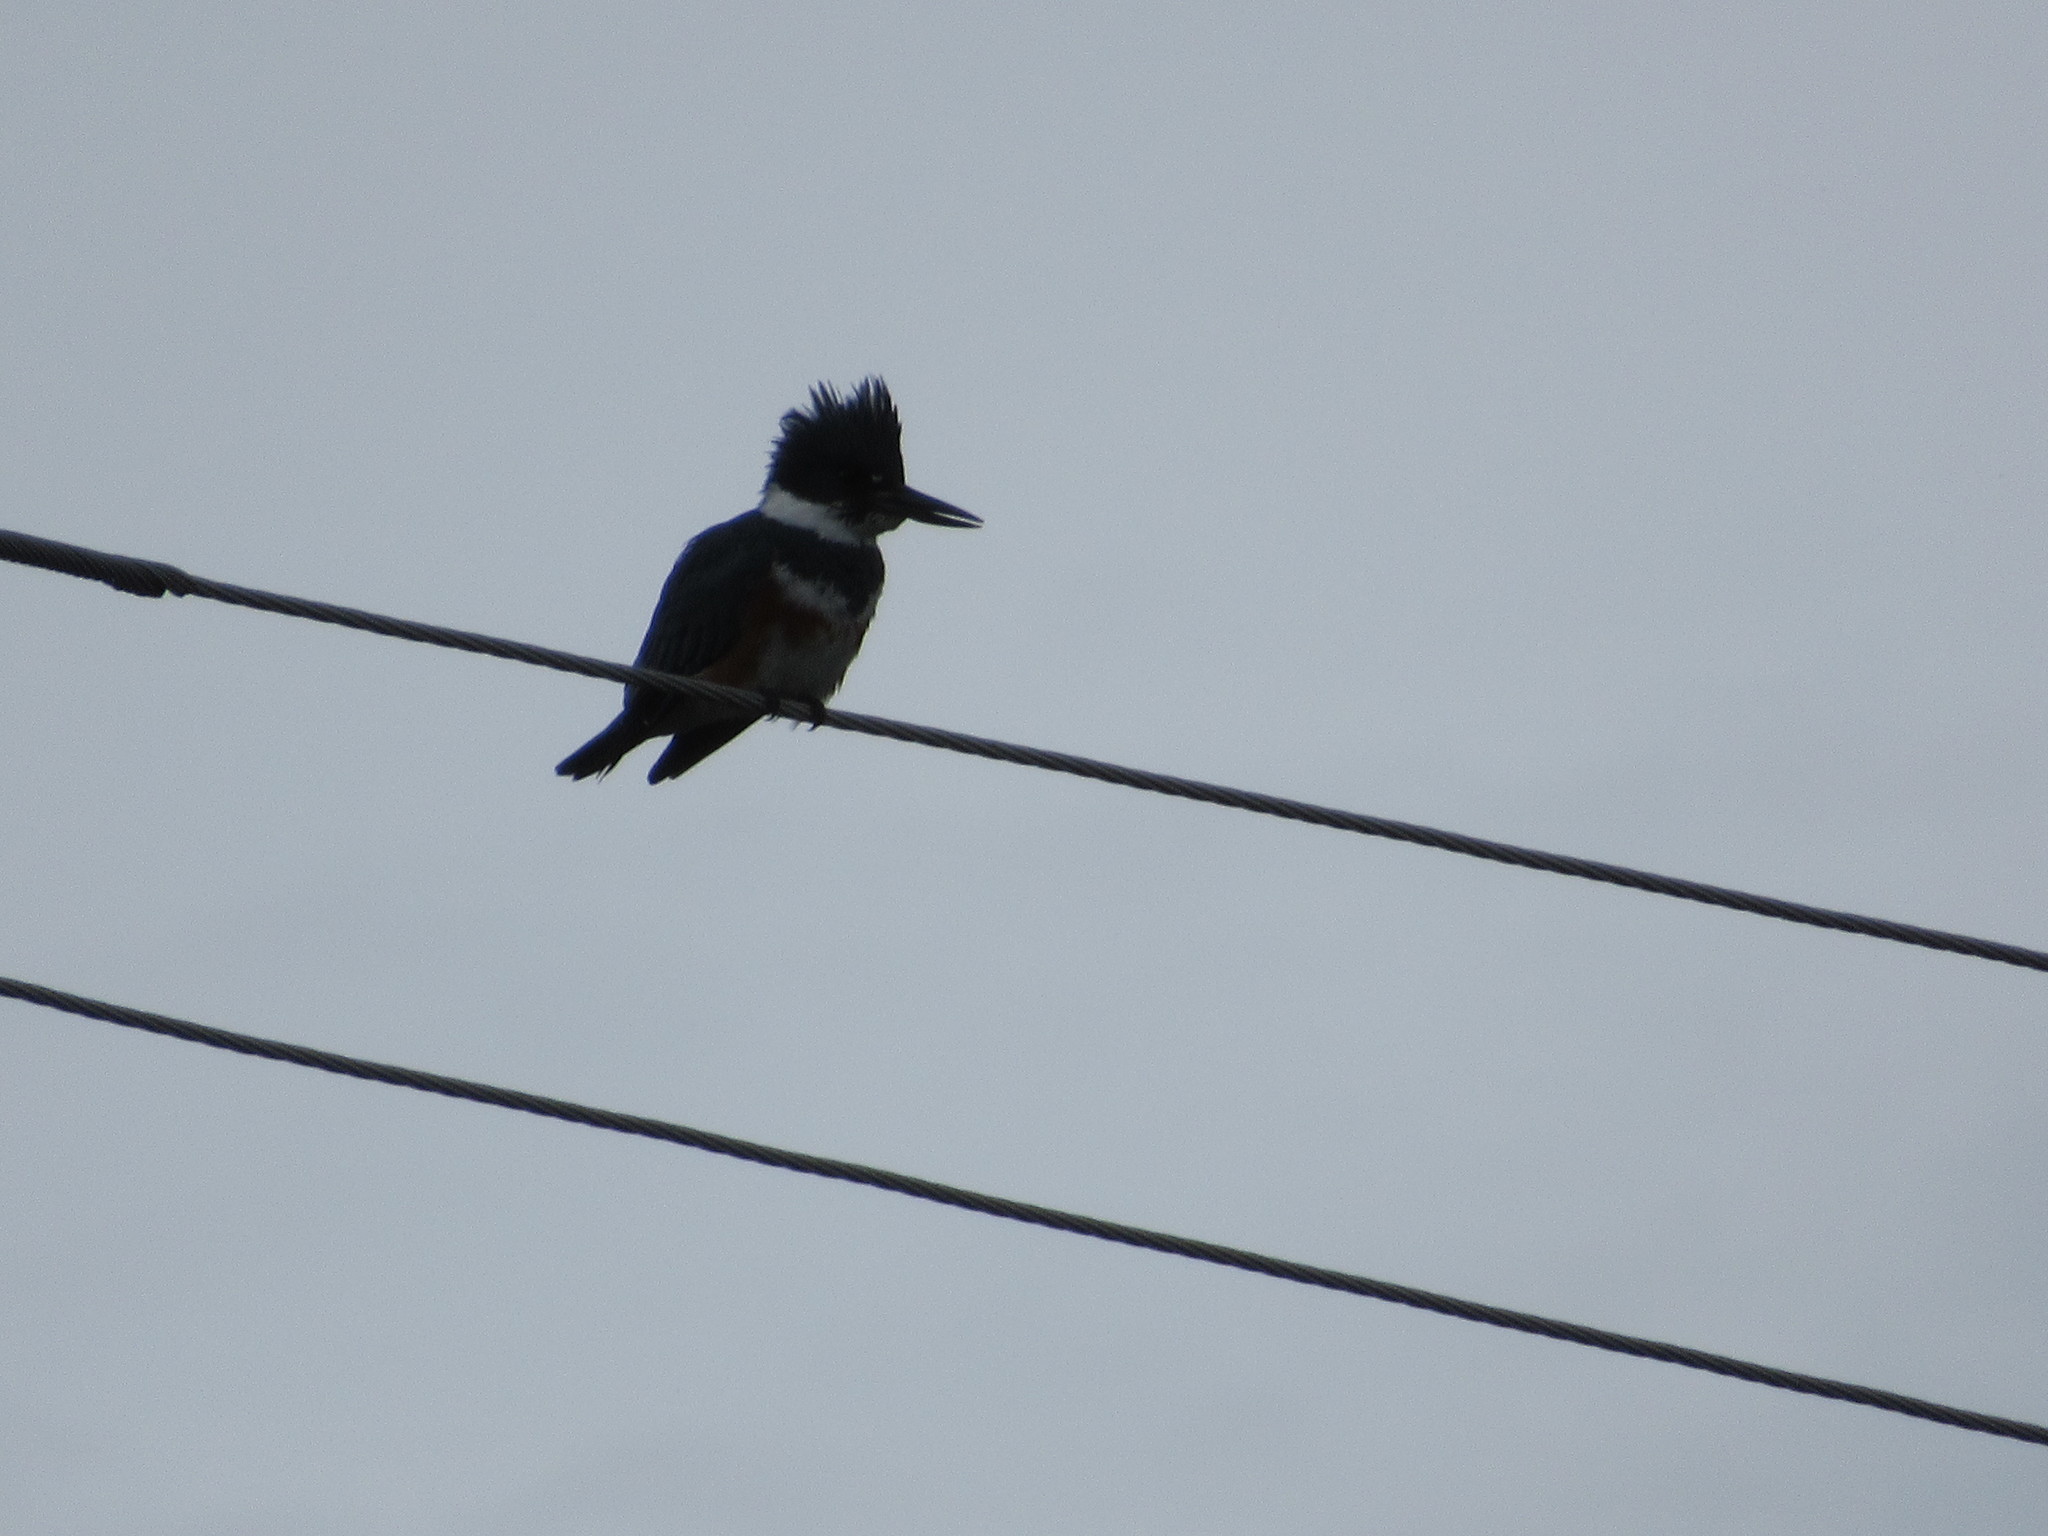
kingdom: Animalia
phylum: Chordata
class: Aves
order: Coraciiformes
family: Alcedinidae
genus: Megaceryle
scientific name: Megaceryle alcyon
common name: Belted kingfisher
